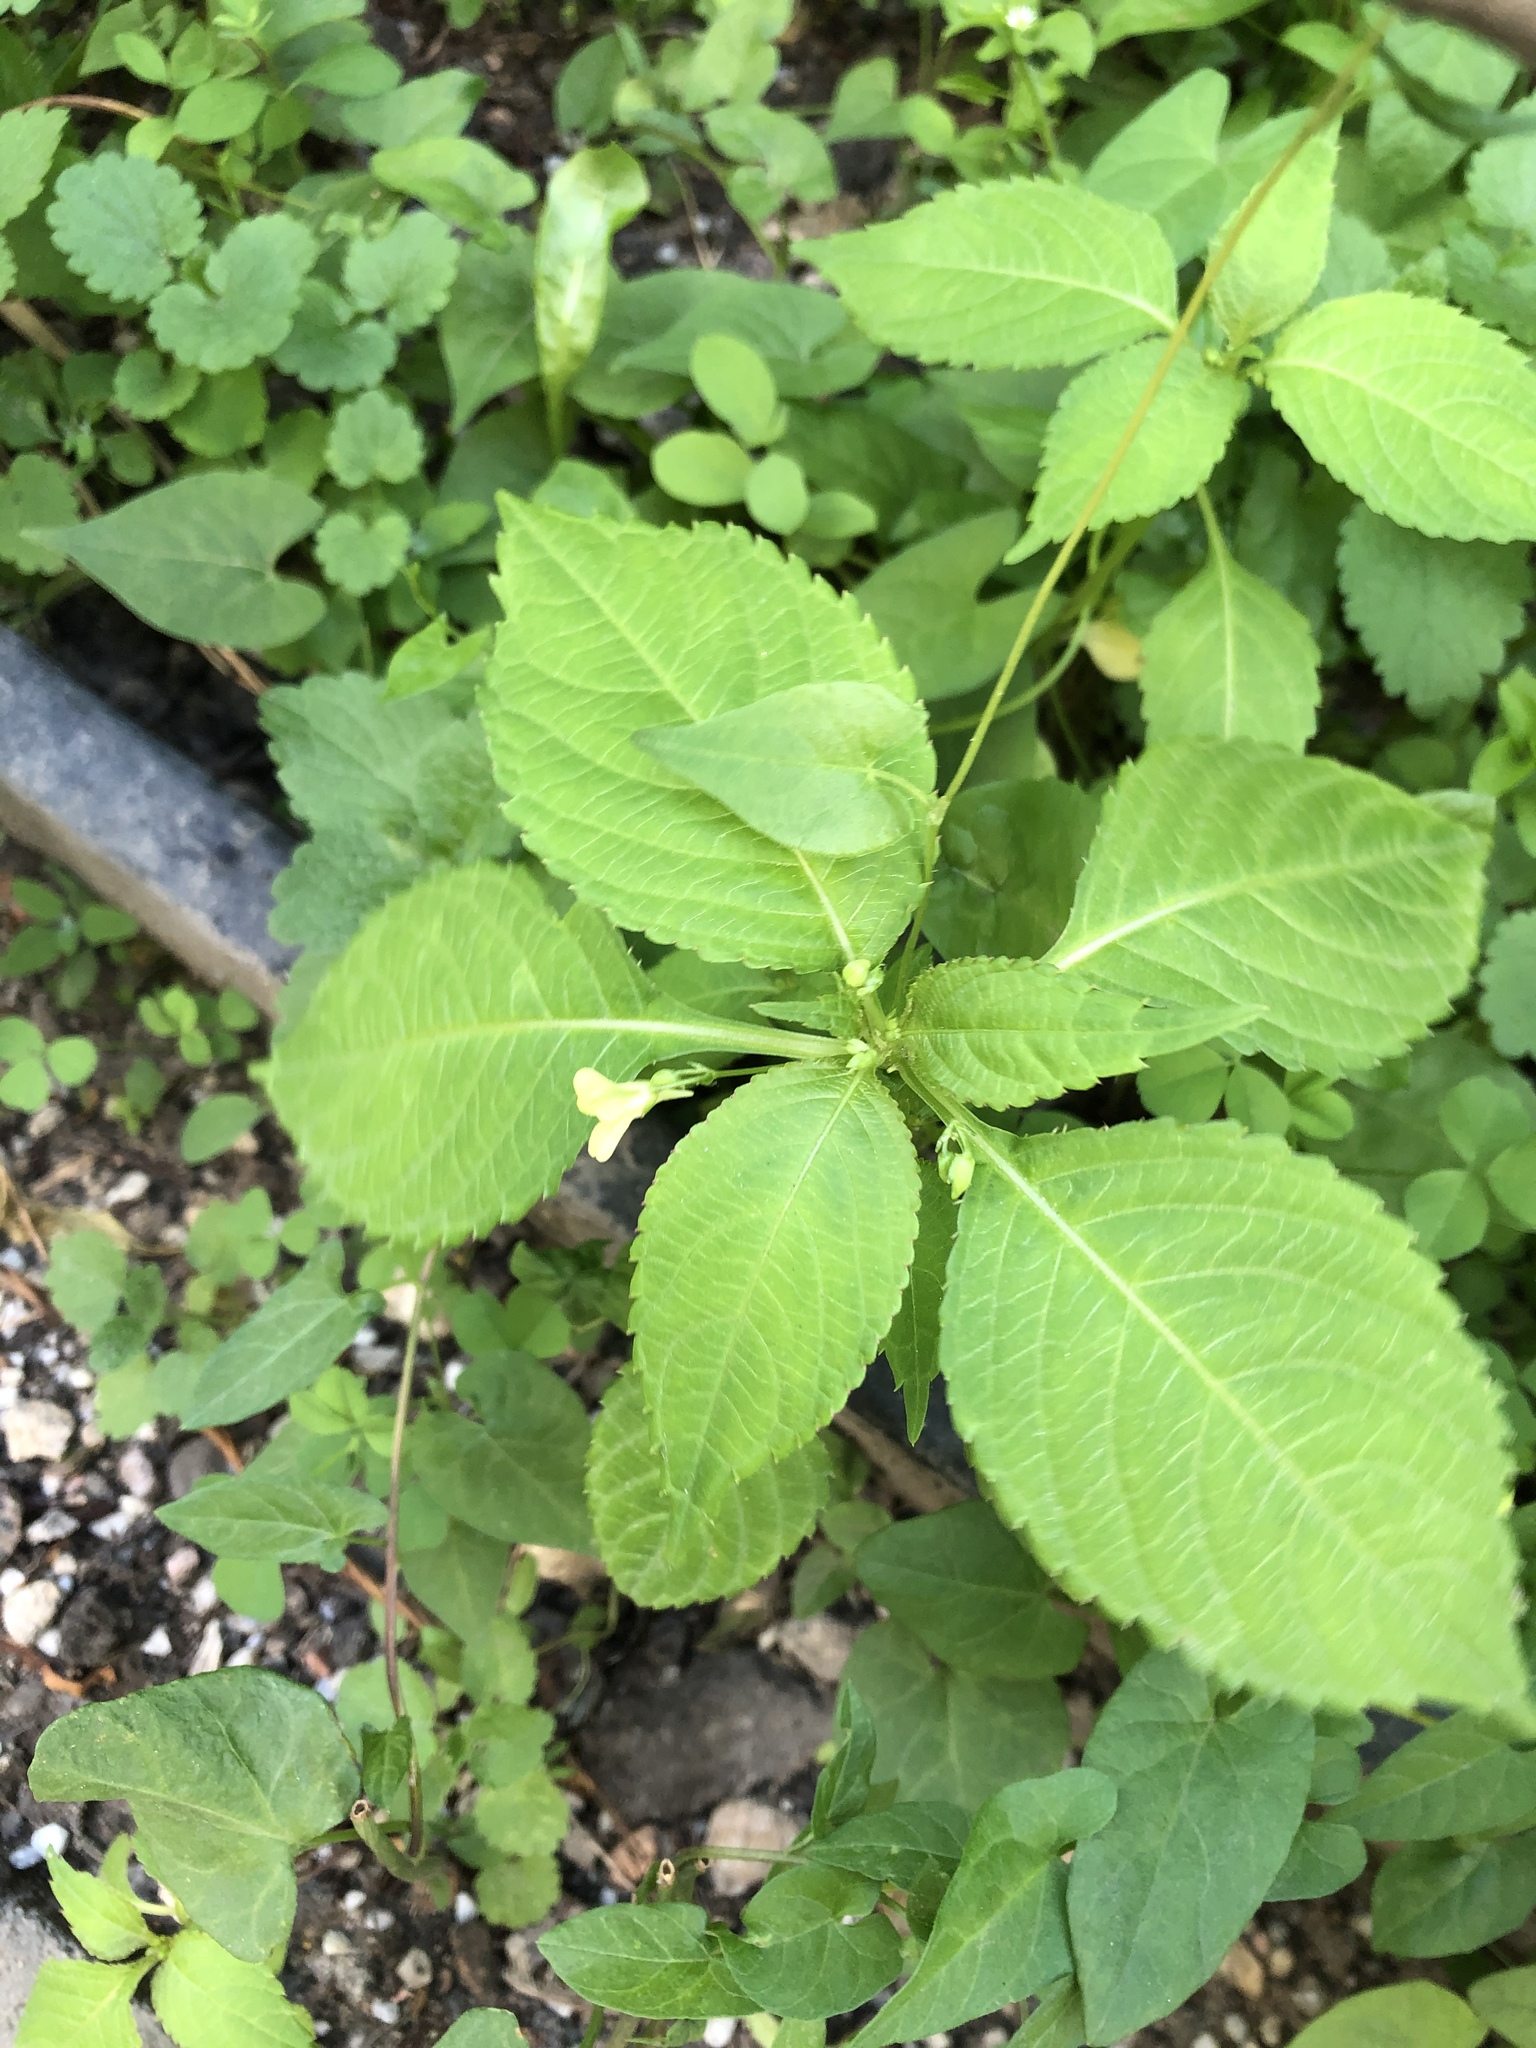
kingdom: Plantae
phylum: Tracheophyta
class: Magnoliopsida
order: Ericales
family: Balsaminaceae
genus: Impatiens
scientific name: Impatiens parviflora
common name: Small balsam
